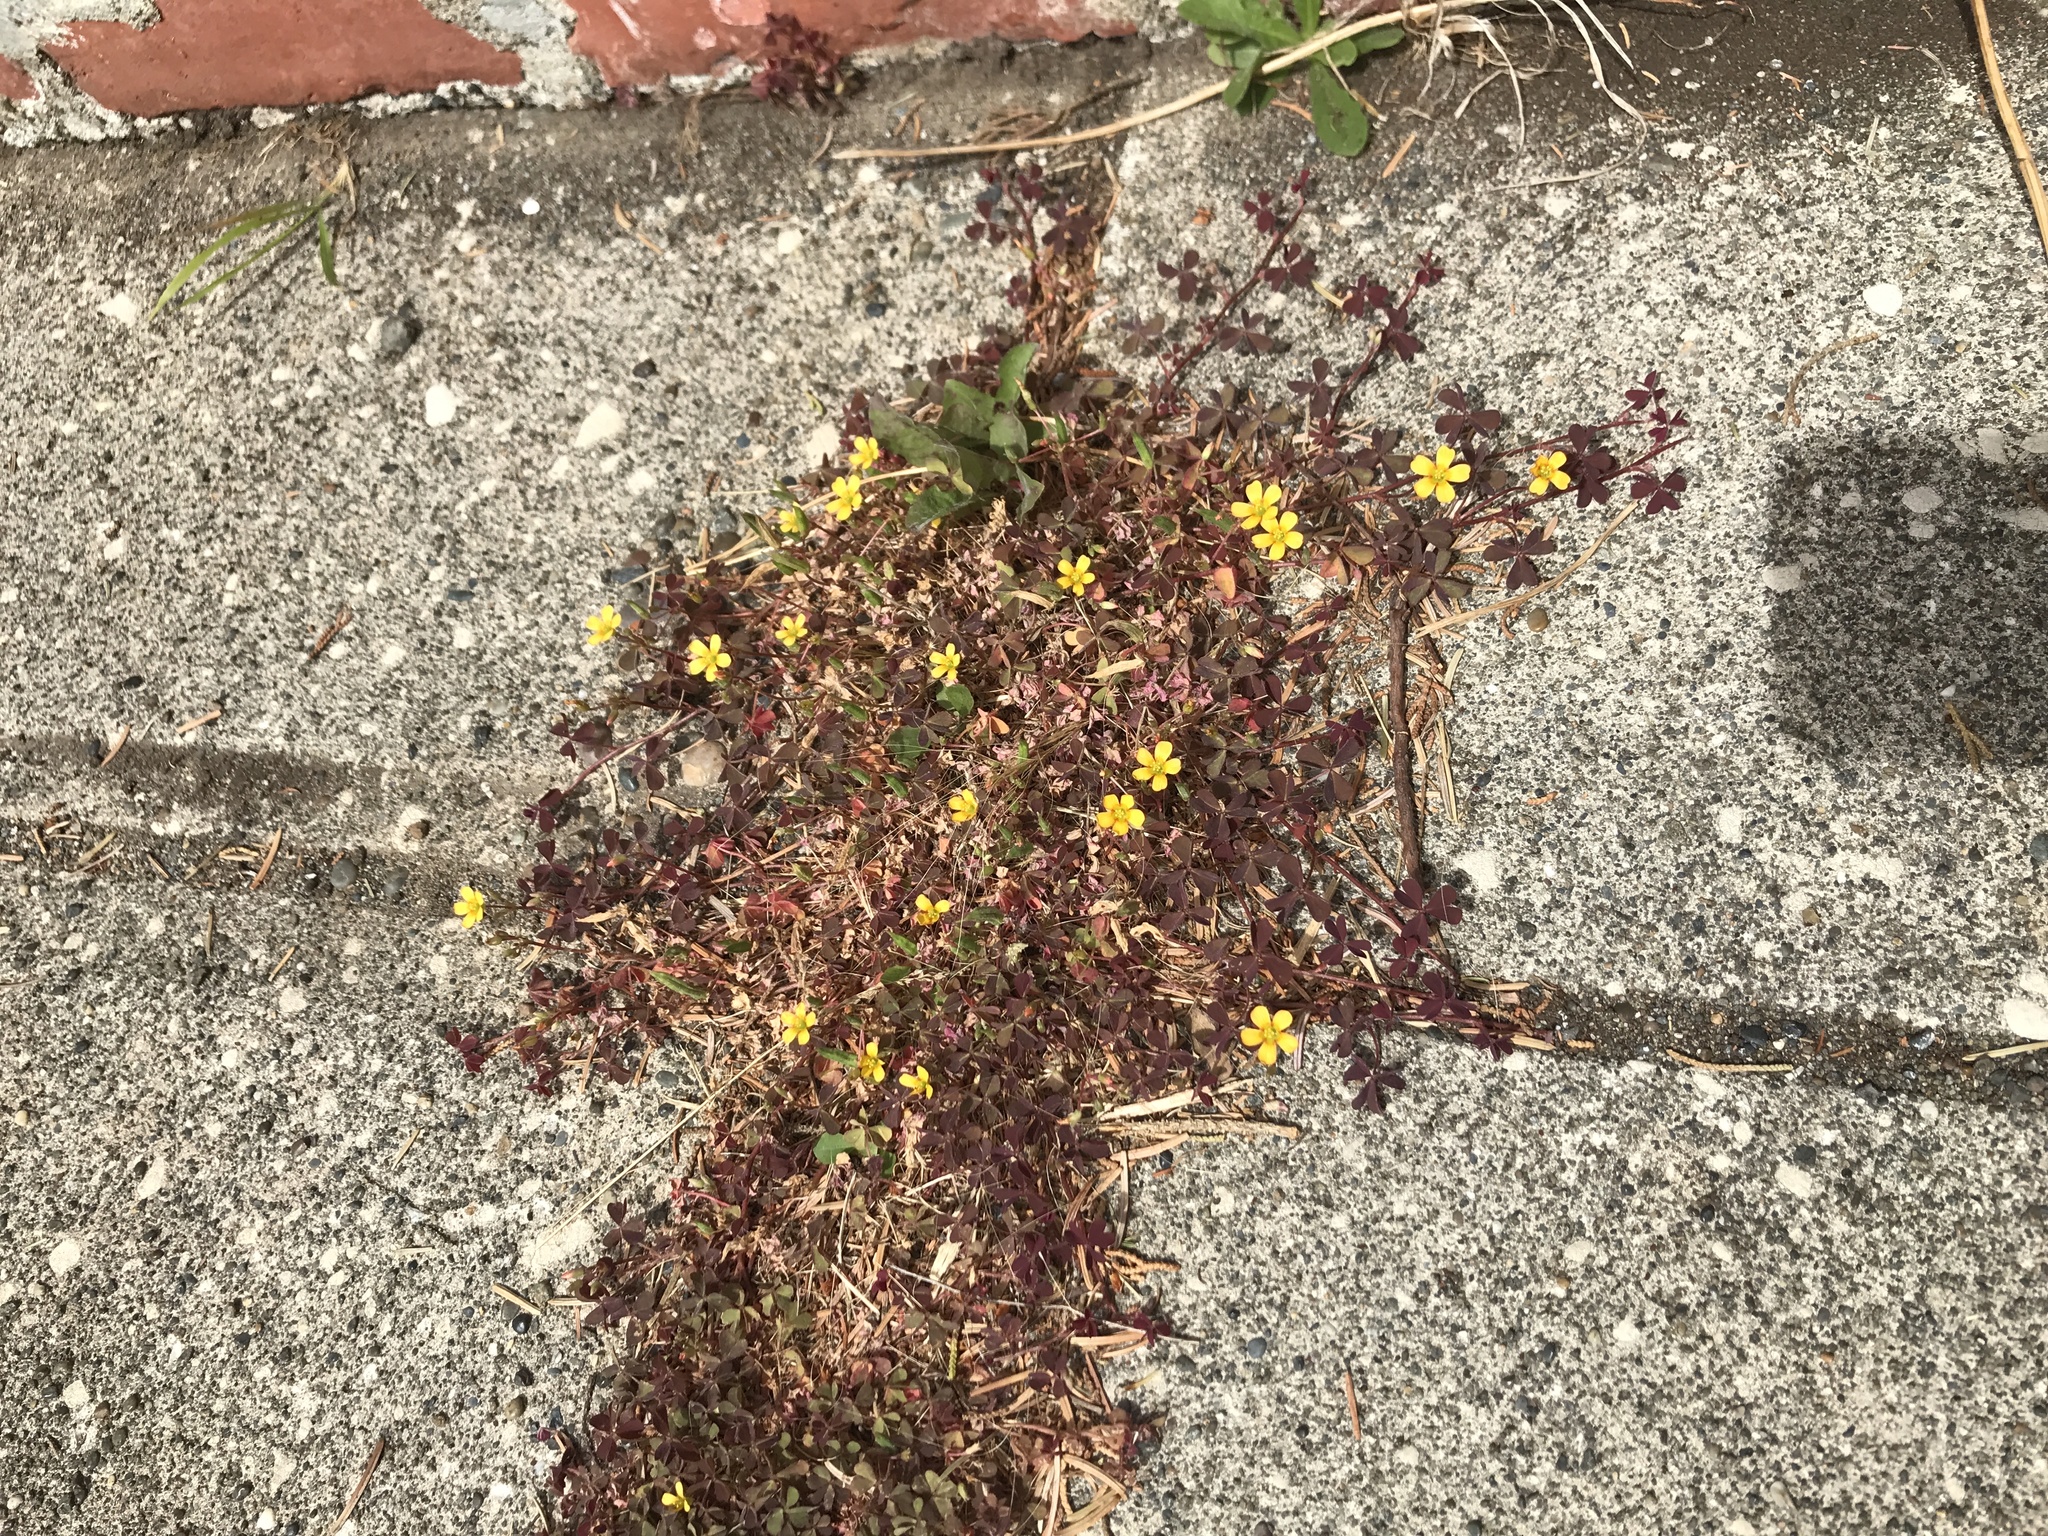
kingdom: Plantae
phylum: Tracheophyta
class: Magnoliopsida
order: Oxalidales
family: Oxalidaceae
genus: Oxalis
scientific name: Oxalis corniculata
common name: Procumbent yellow-sorrel
